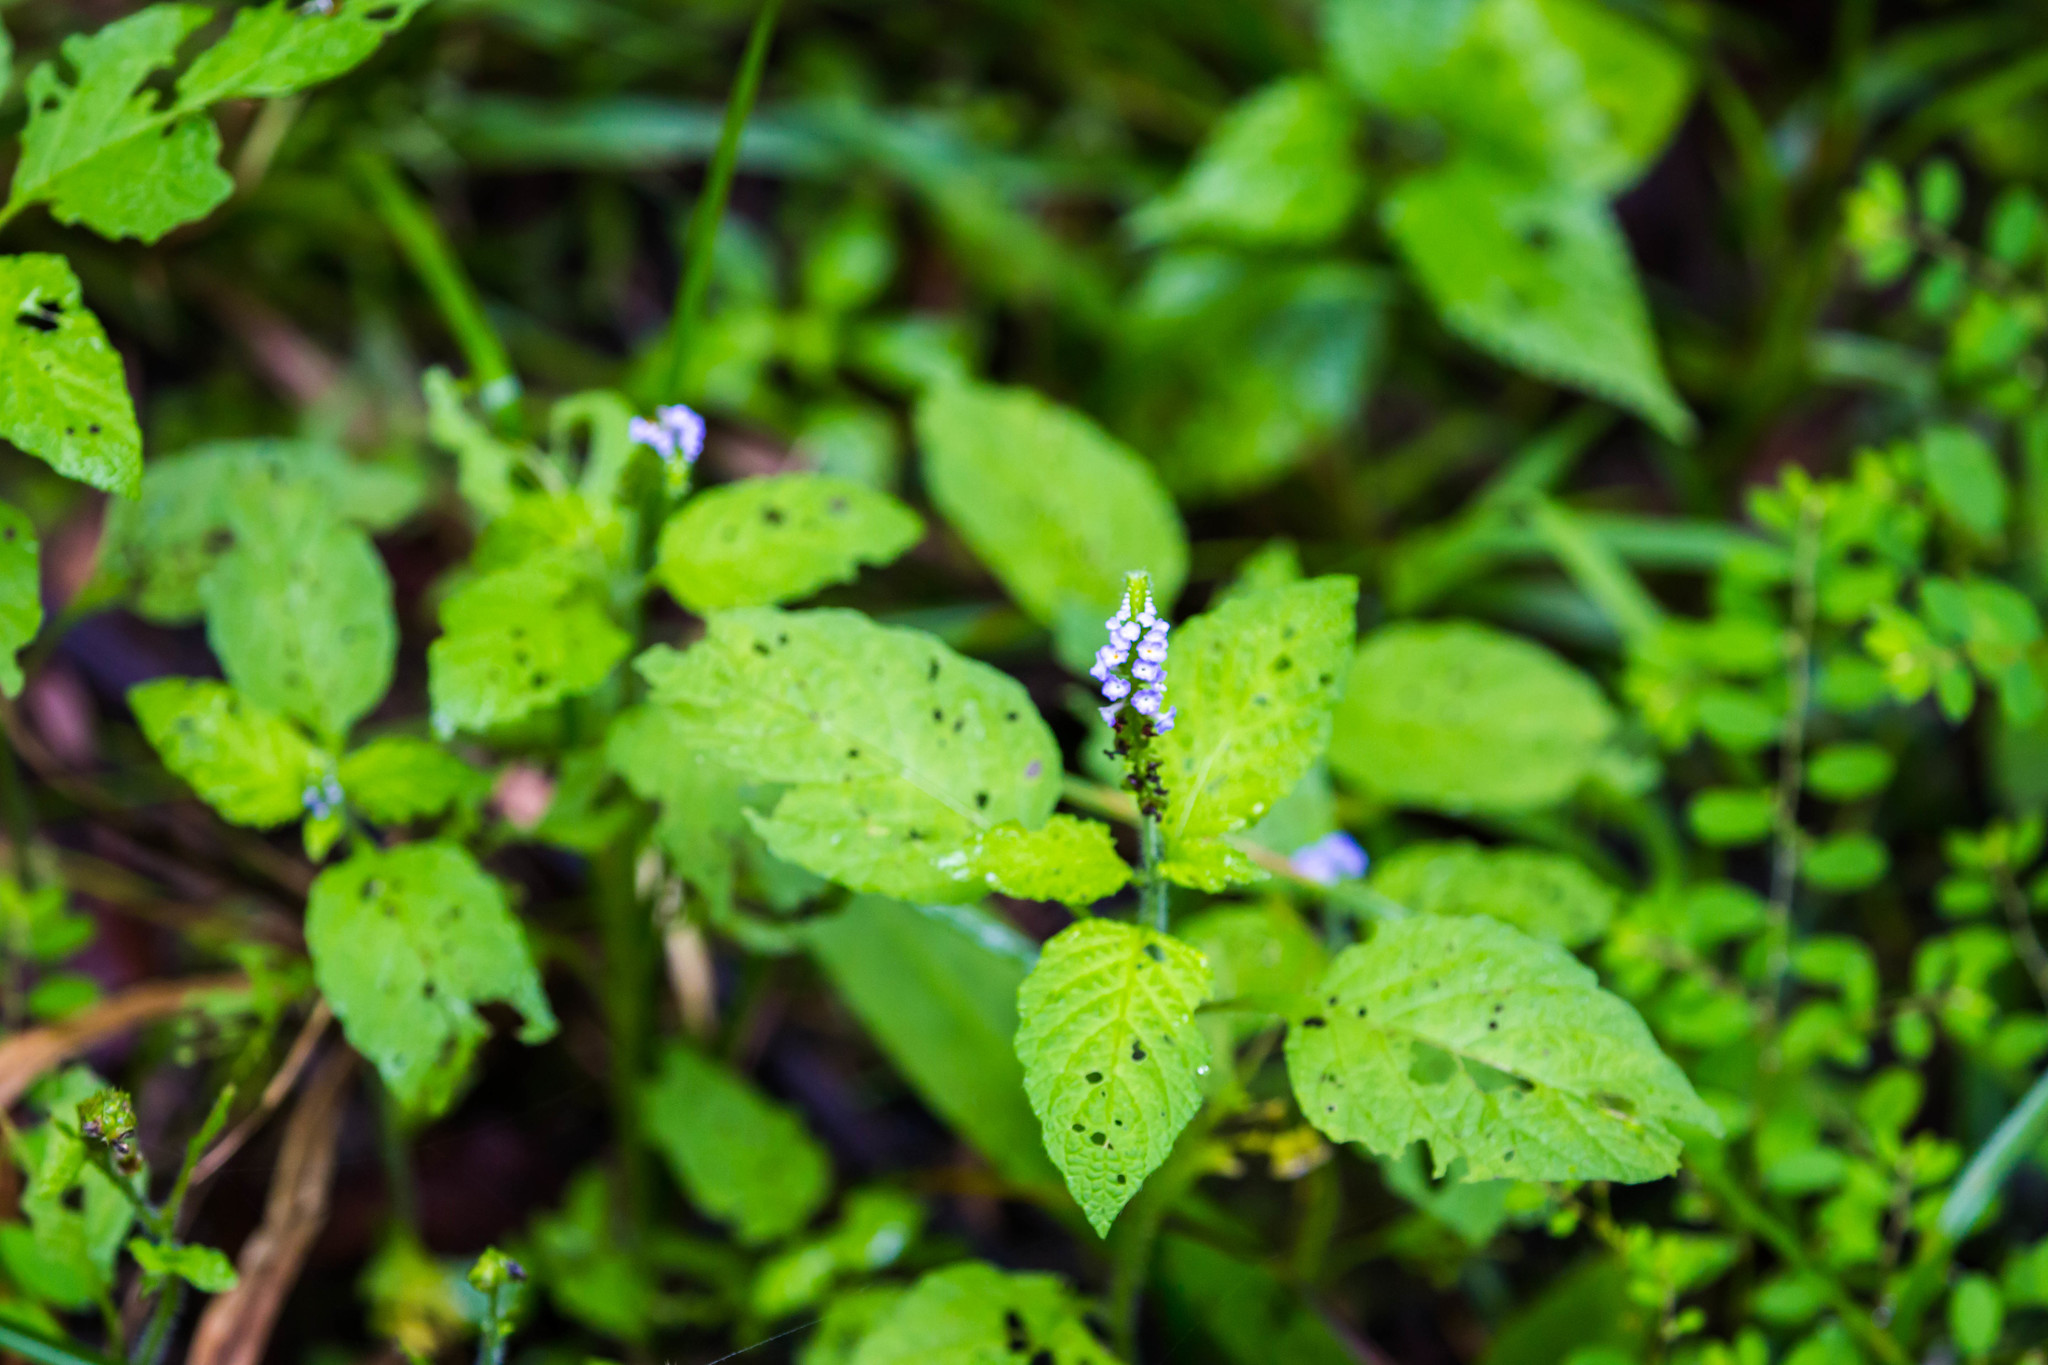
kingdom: Plantae
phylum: Tracheophyta
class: Magnoliopsida
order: Boraginales
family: Heliotropiaceae
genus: Heliotropium
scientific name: Heliotropium indicum
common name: Indian heliotrope
